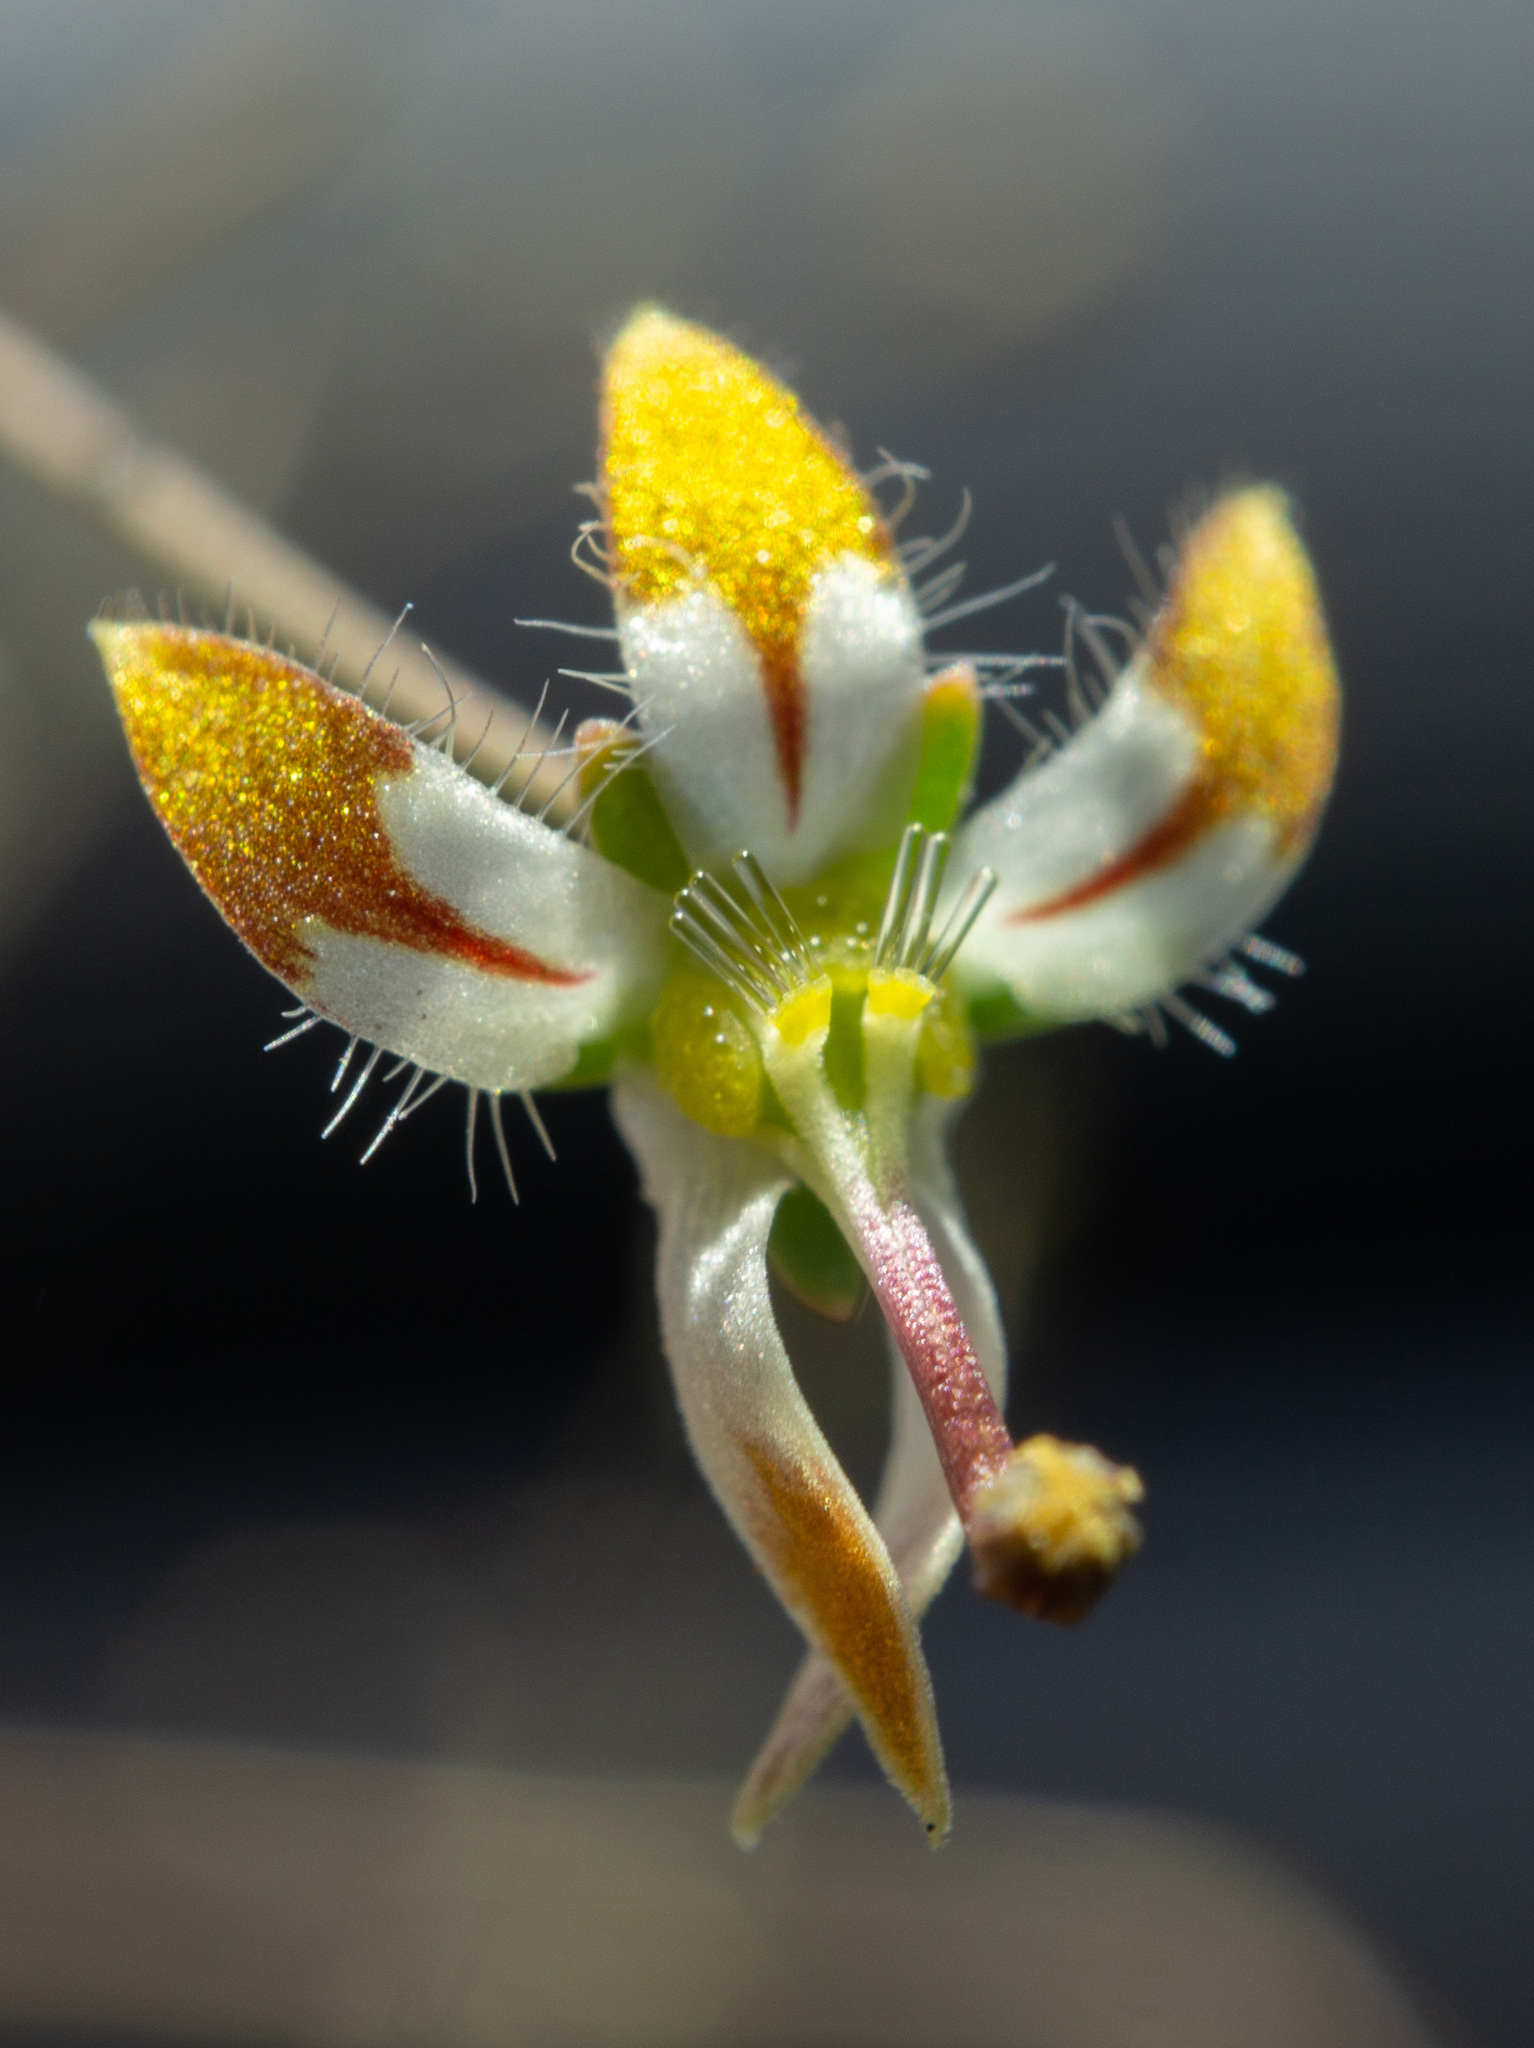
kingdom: Plantae
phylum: Tracheophyta
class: Magnoliopsida
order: Asterales
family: Campanulaceae
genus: Nemacladus
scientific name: Nemacladus rubescens
